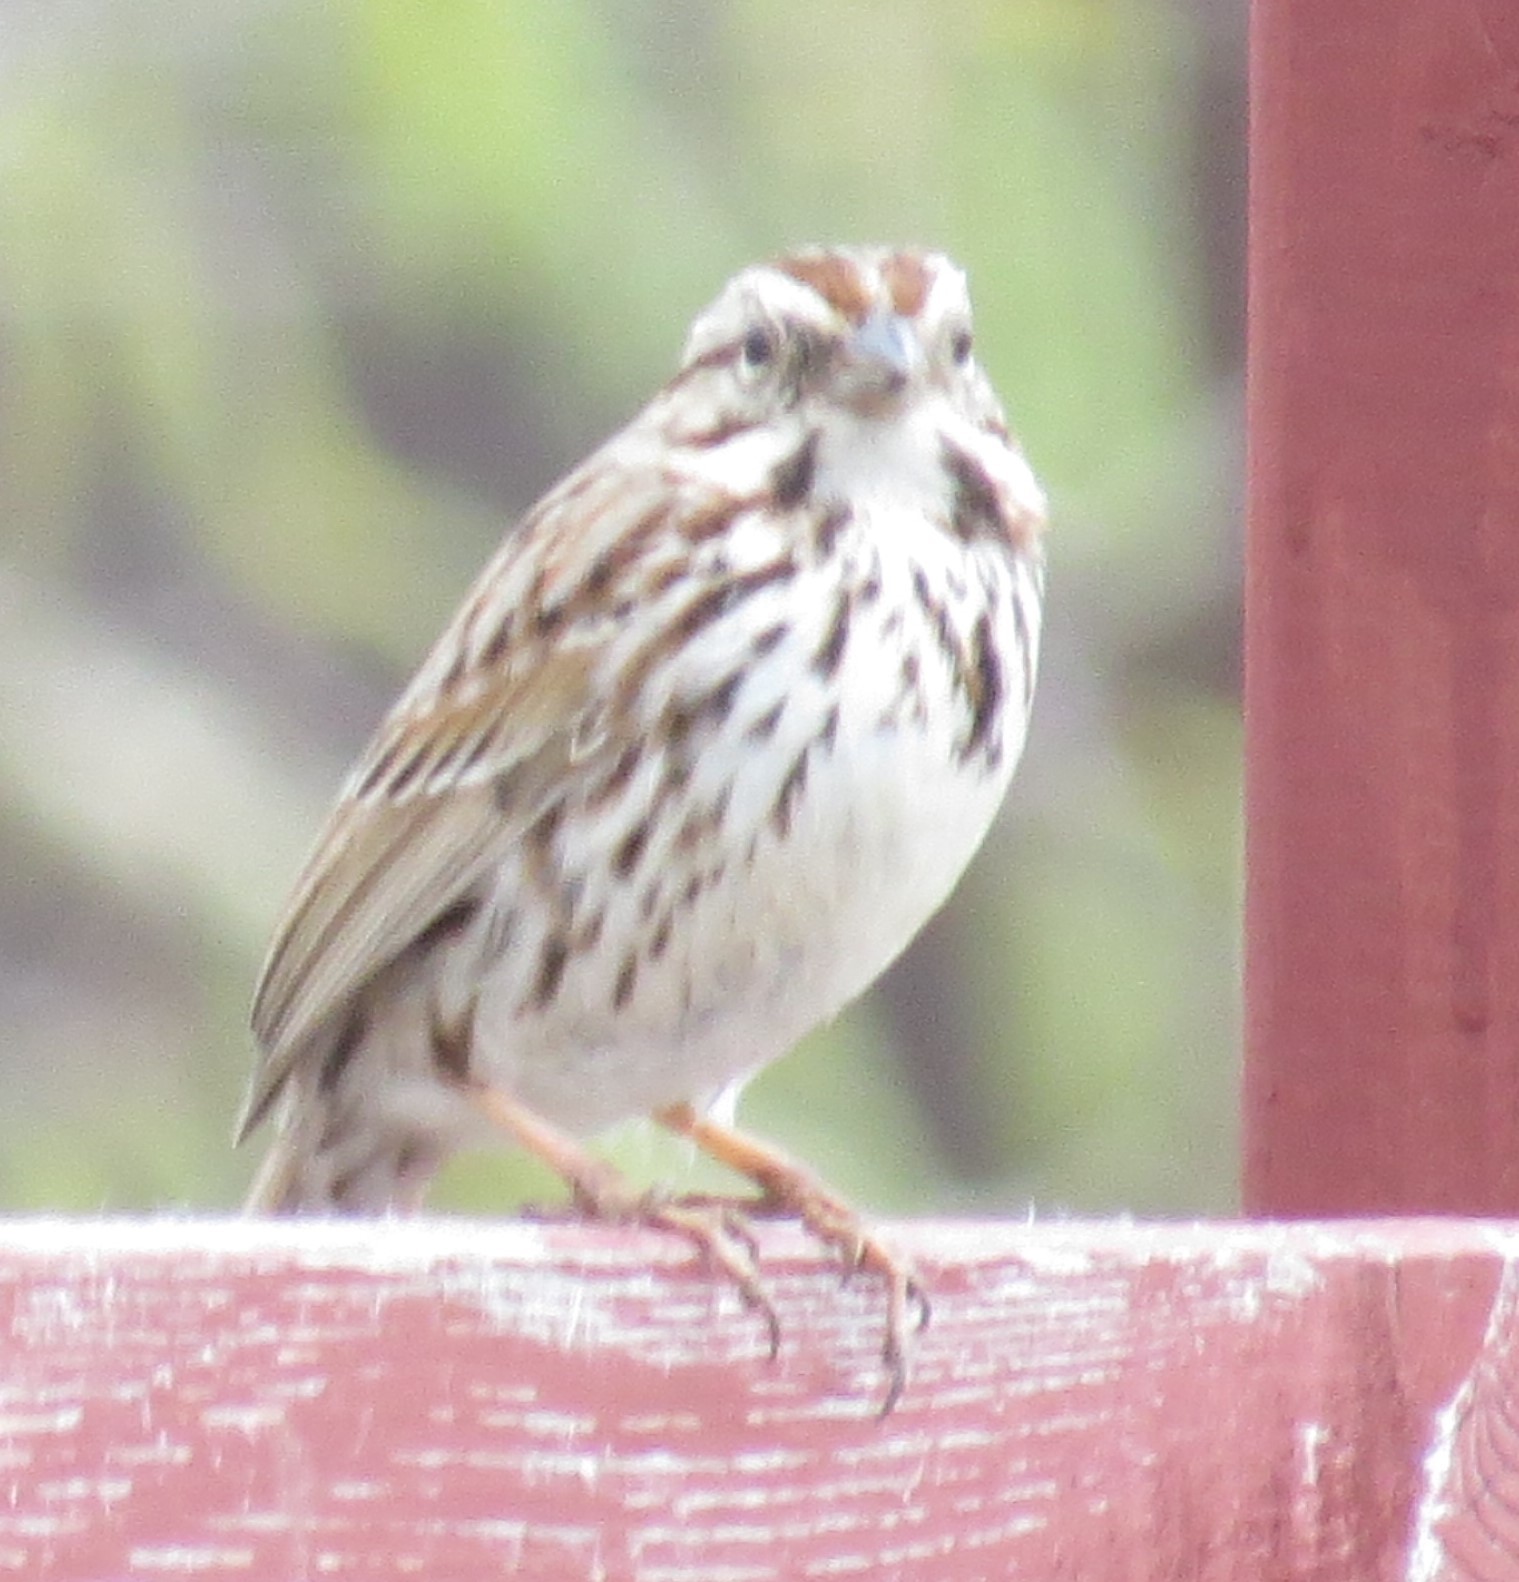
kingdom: Animalia
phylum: Chordata
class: Aves
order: Passeriformes
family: Passerellidae
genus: Melospiza
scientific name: Melospiza melodia
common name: Song sparrow
